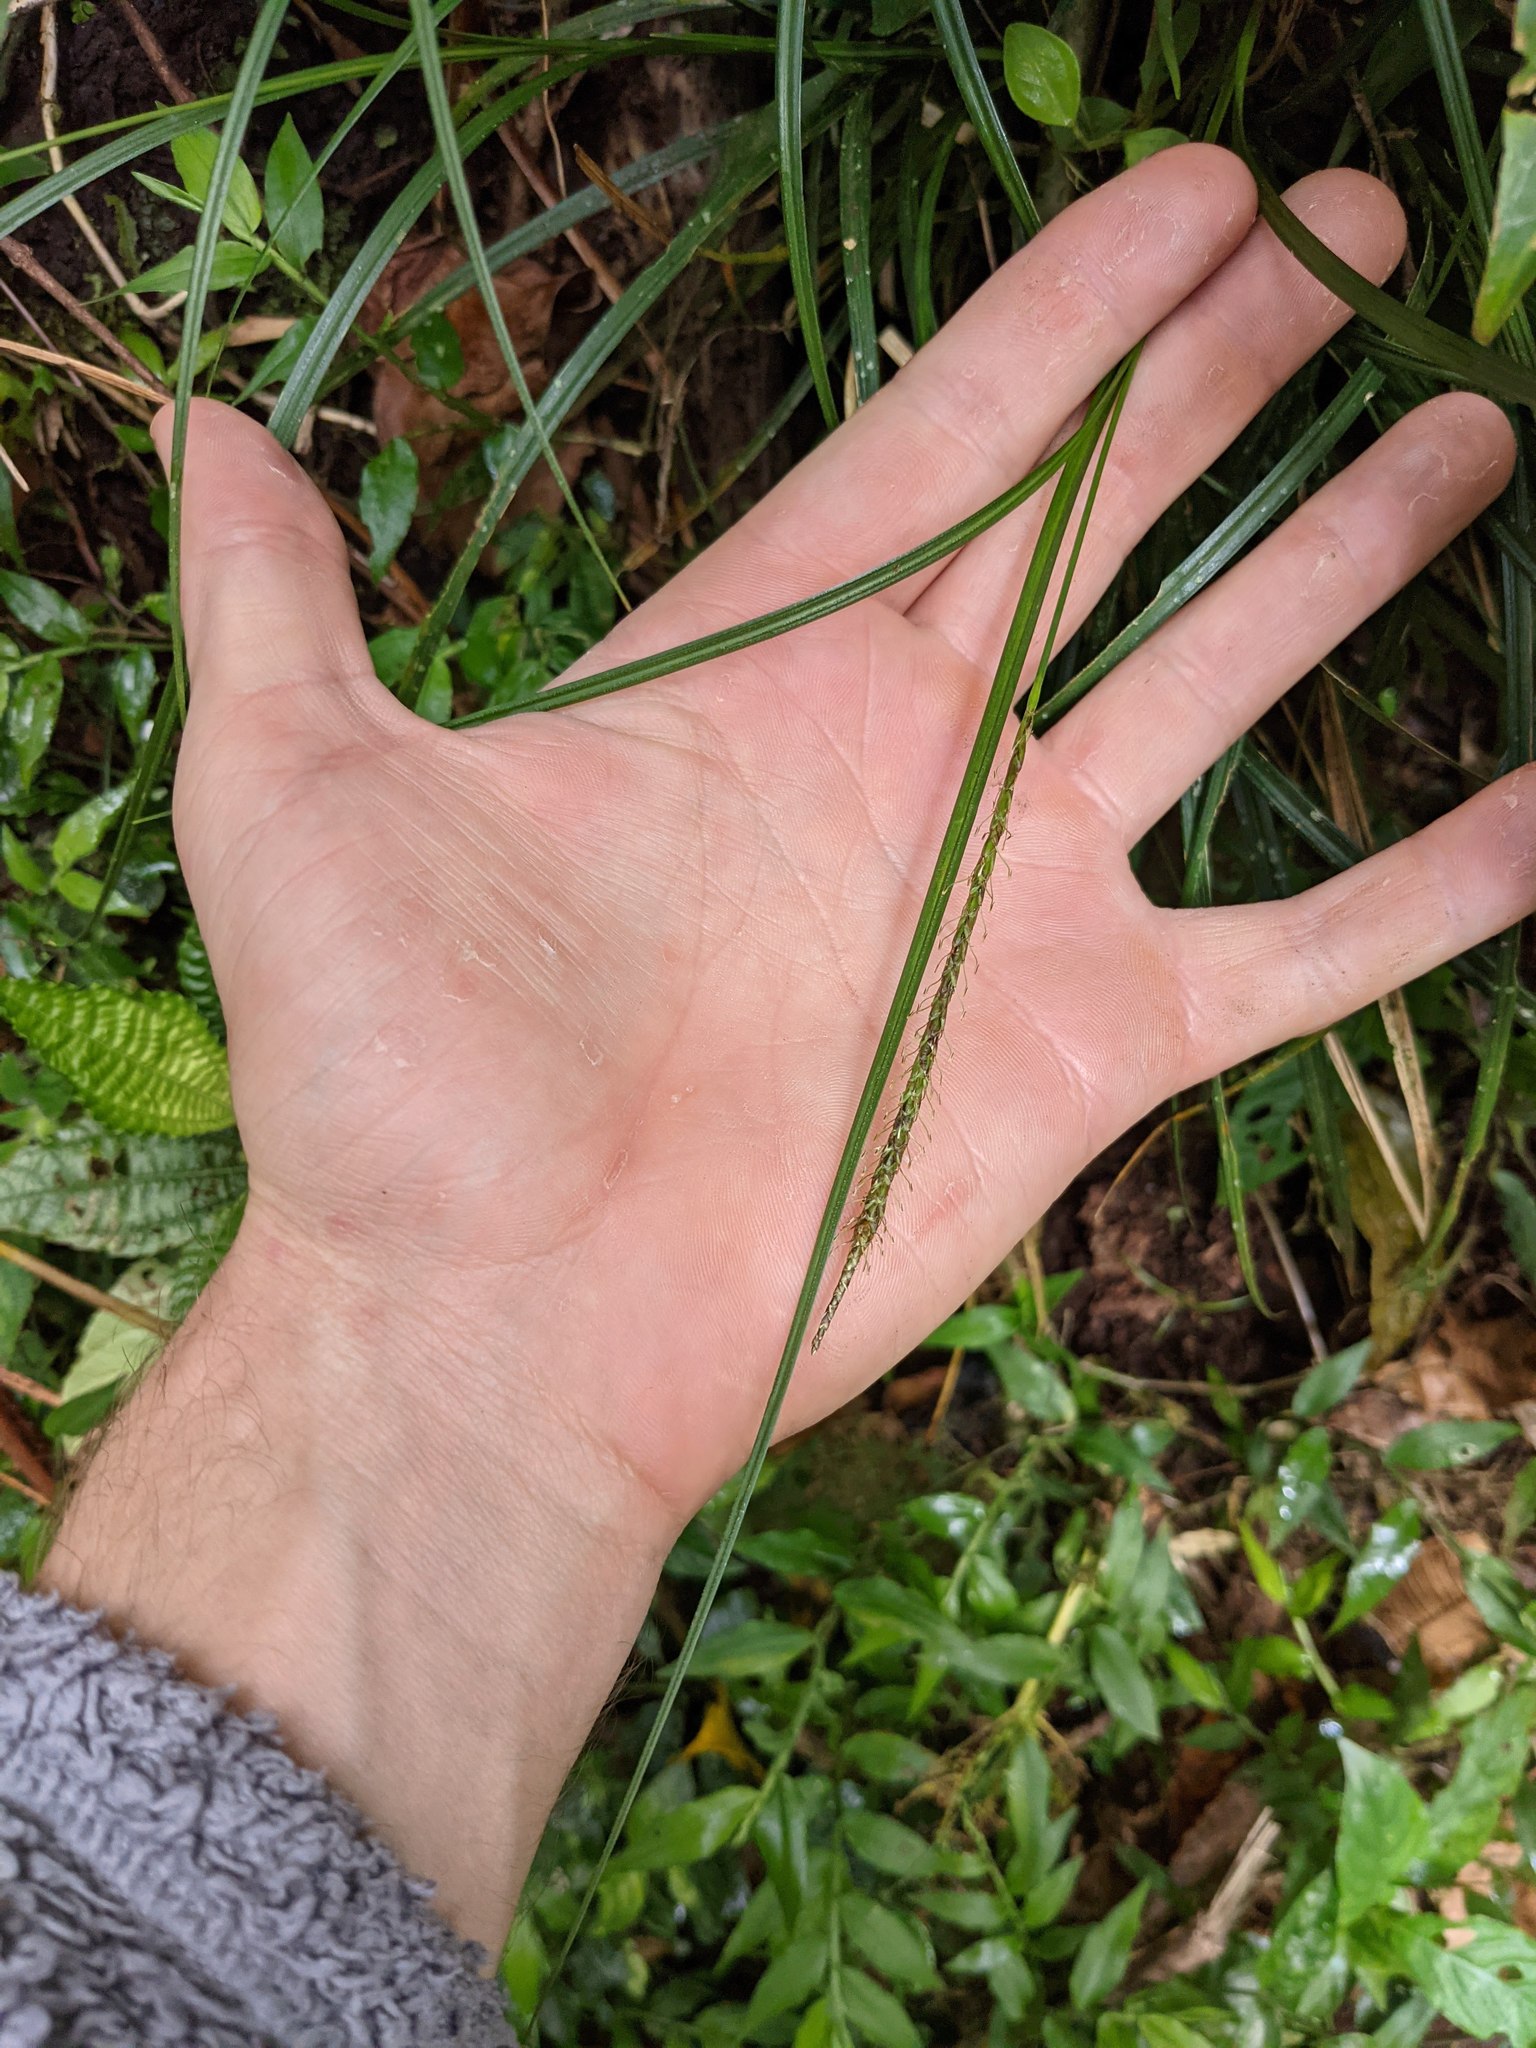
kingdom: Plantae
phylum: Tracheophyta
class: Liliopsida
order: Poales
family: Cyperaceae
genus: Carex
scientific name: Carex hamata
